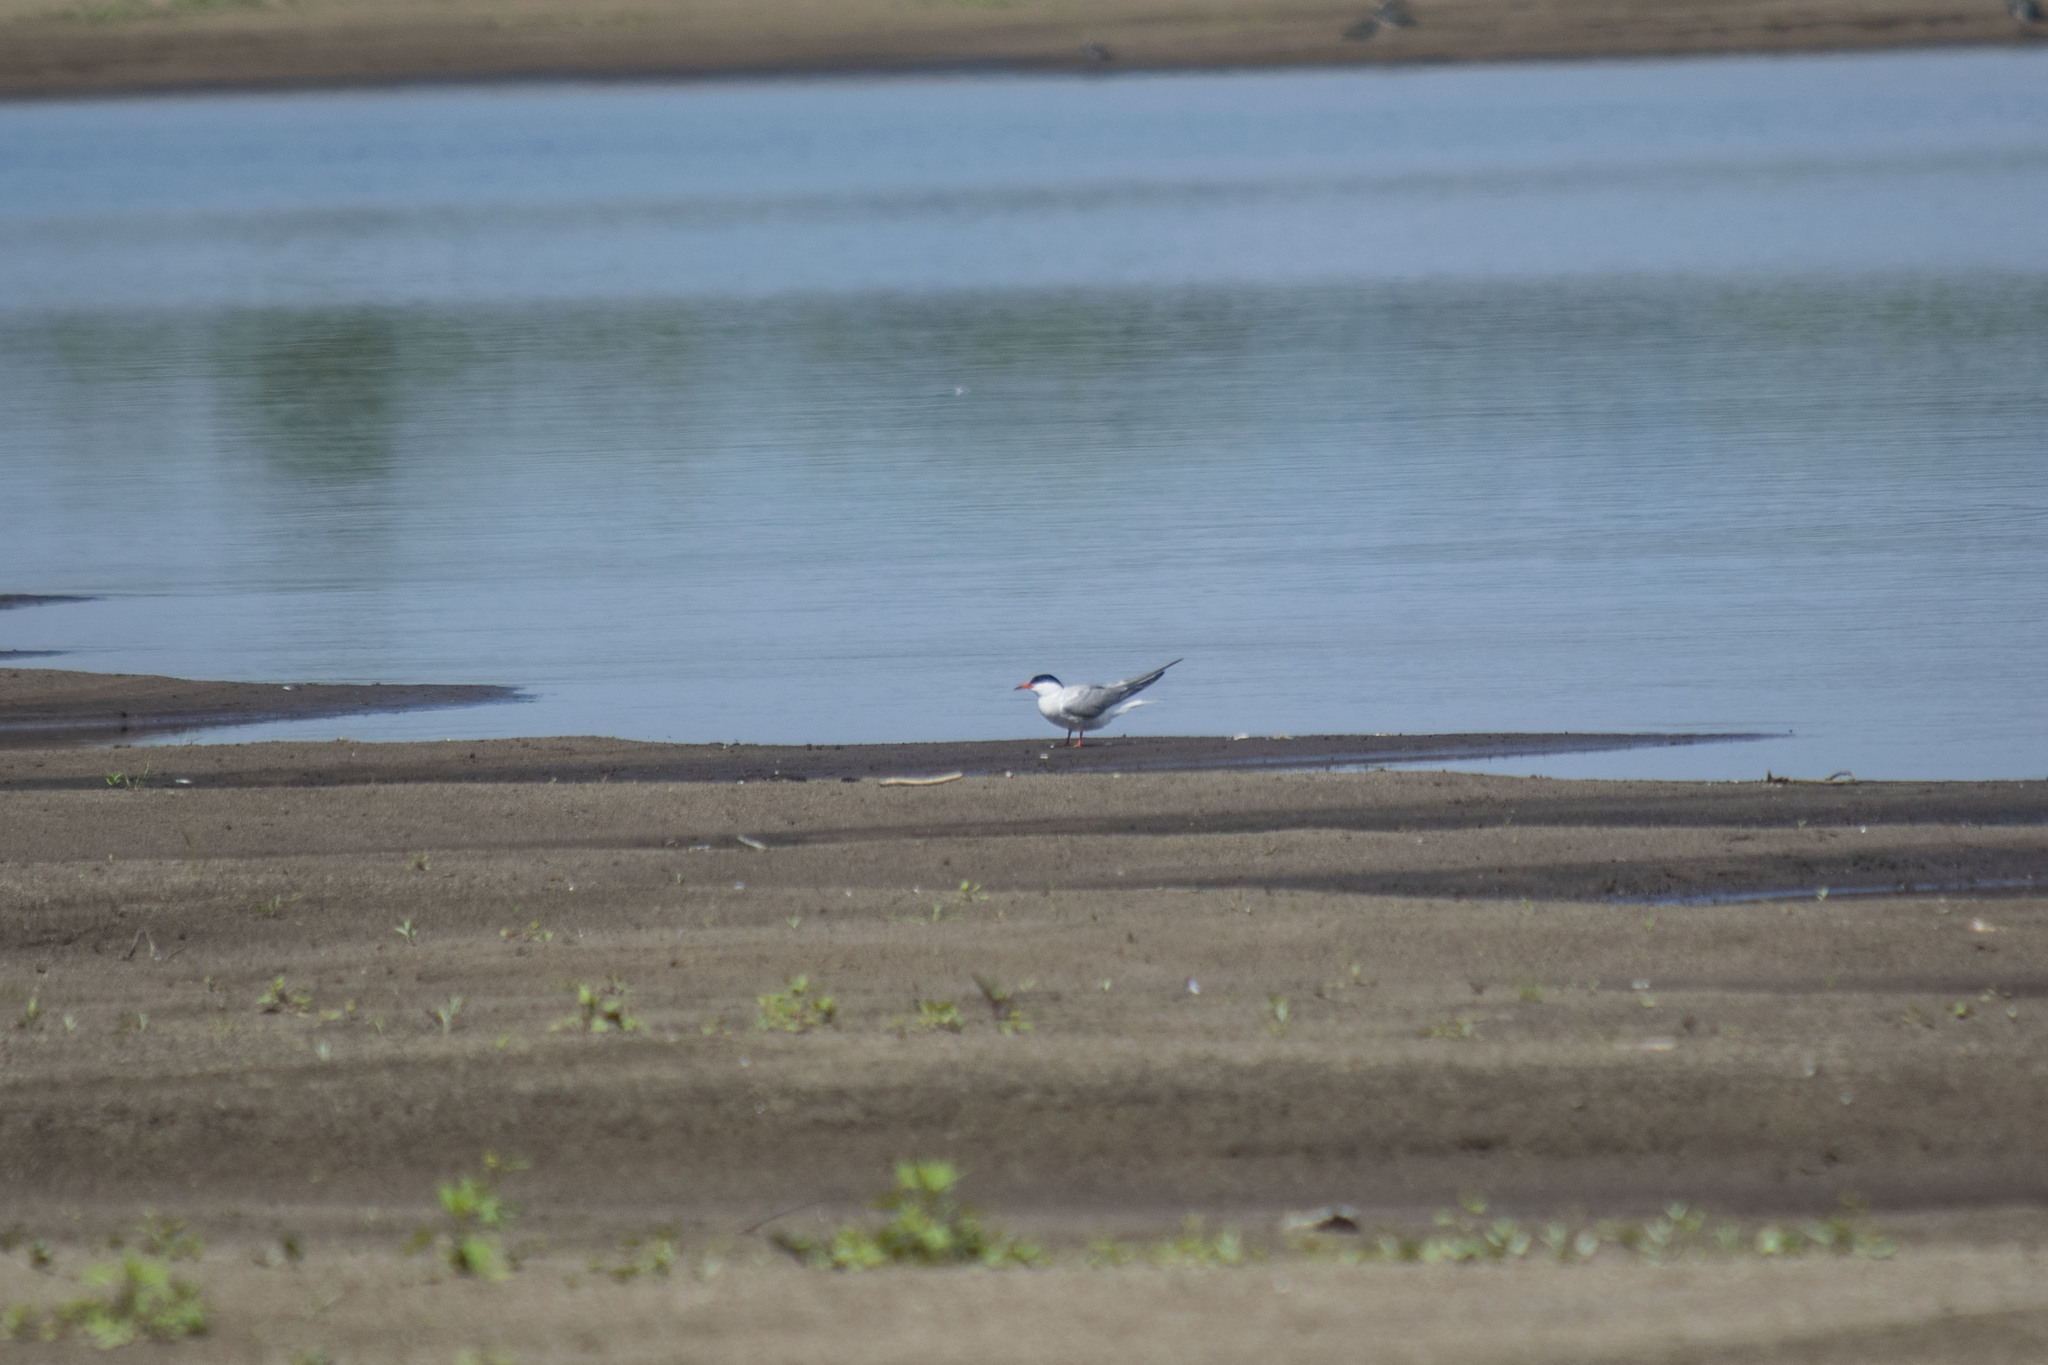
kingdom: Animalia
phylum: Chordata
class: Aves
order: Charadriiformes
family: Laridae
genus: Sterna
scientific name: Sterna hirundo
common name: Common tern
